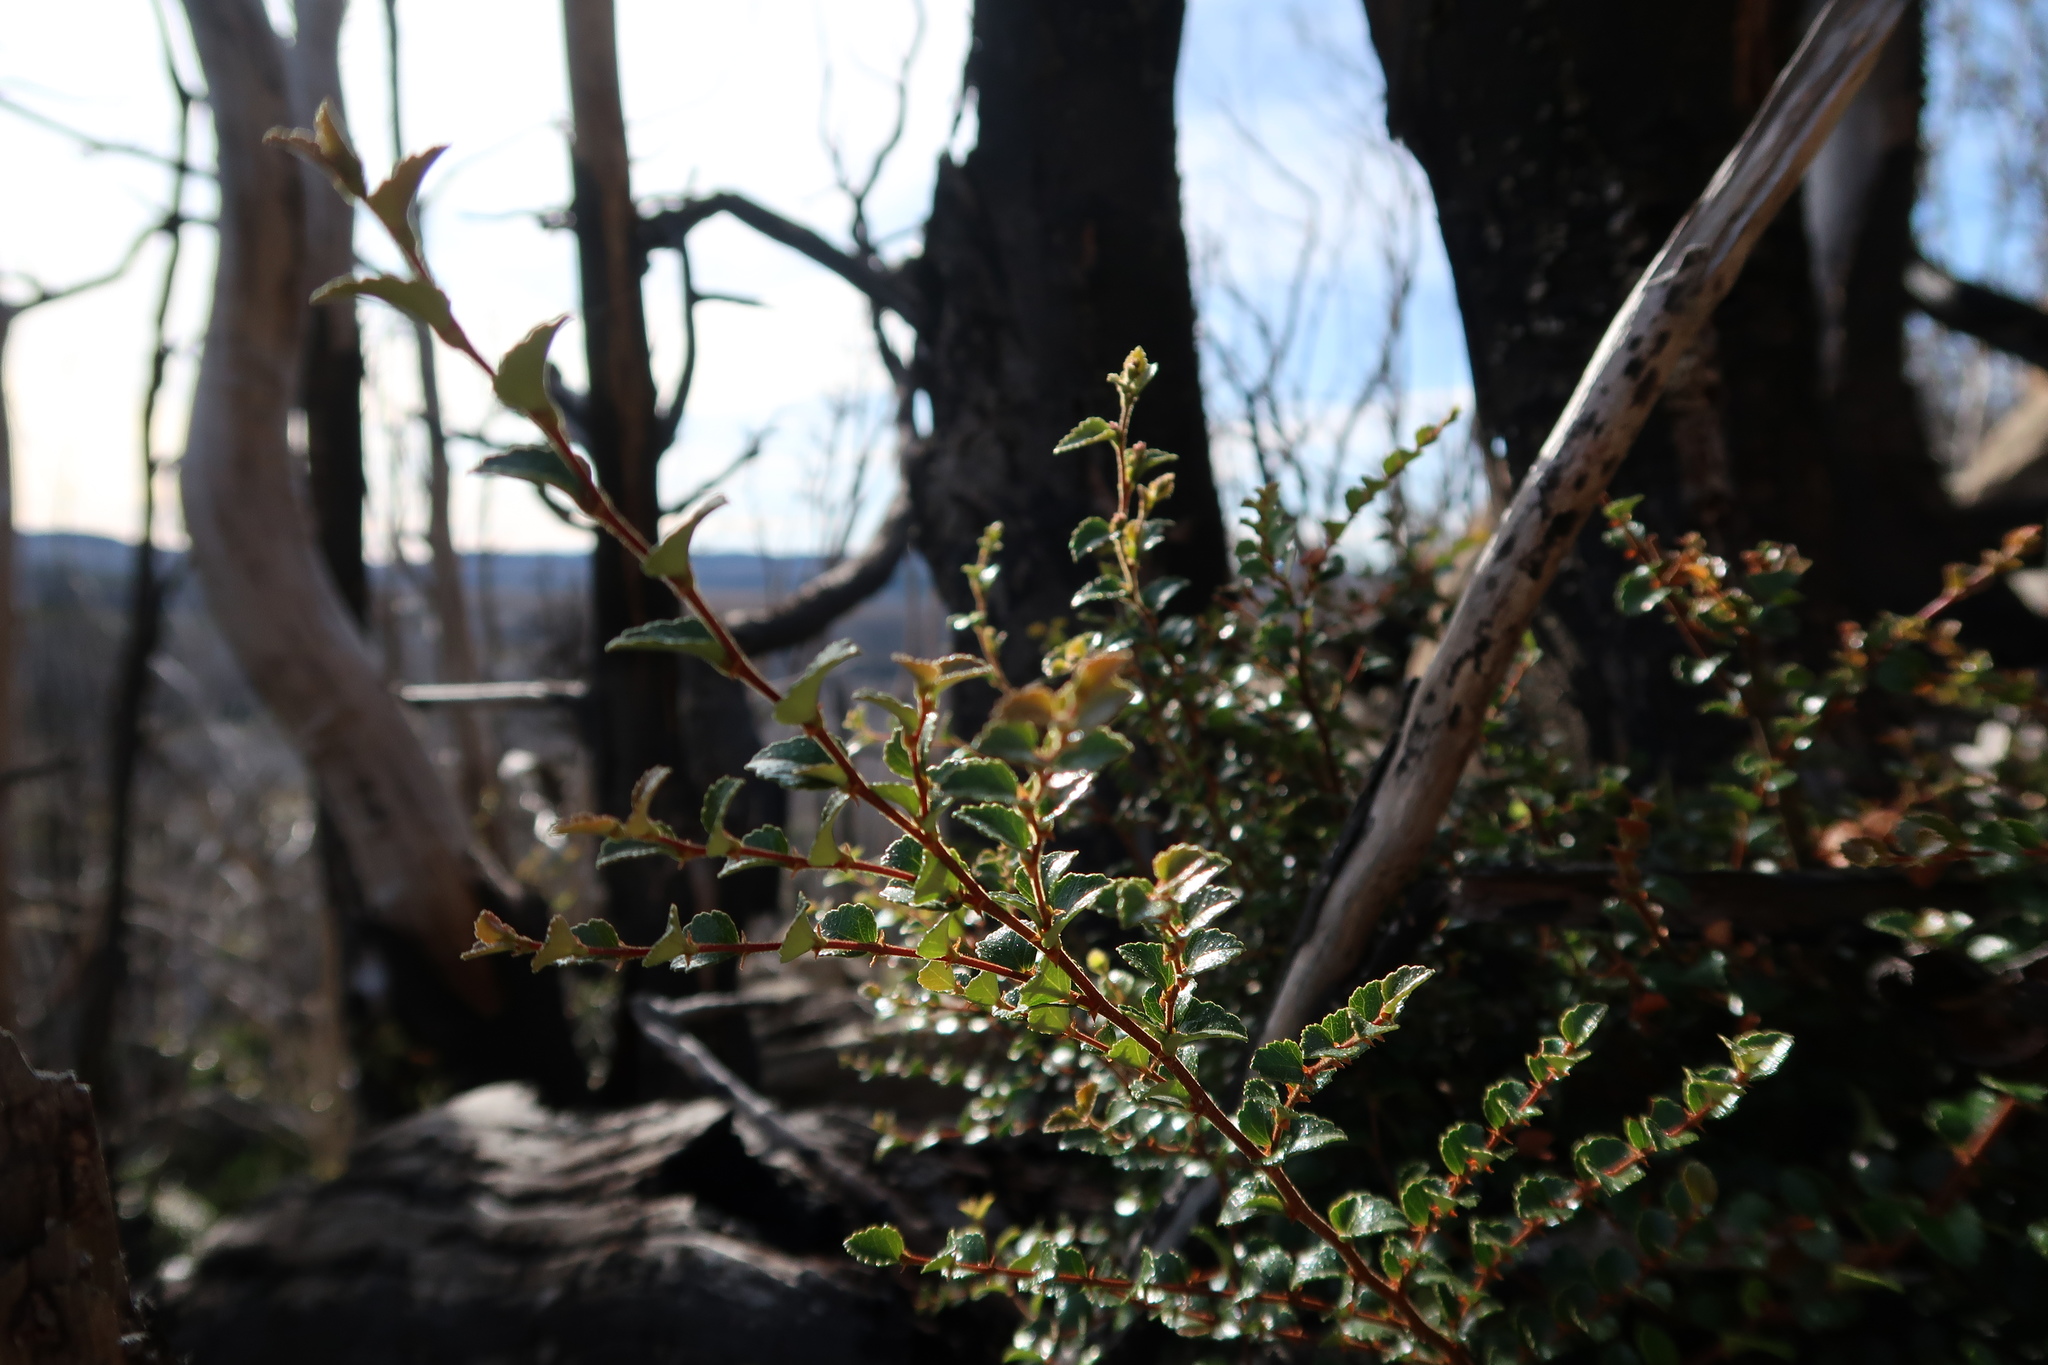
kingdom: Plantae
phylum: Tracheophyta
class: Magnoliopsida
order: Fagales
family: Nothofagaceae
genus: Nothofagus
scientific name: Nothofagus cunninghamii
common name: Myrtle beech
